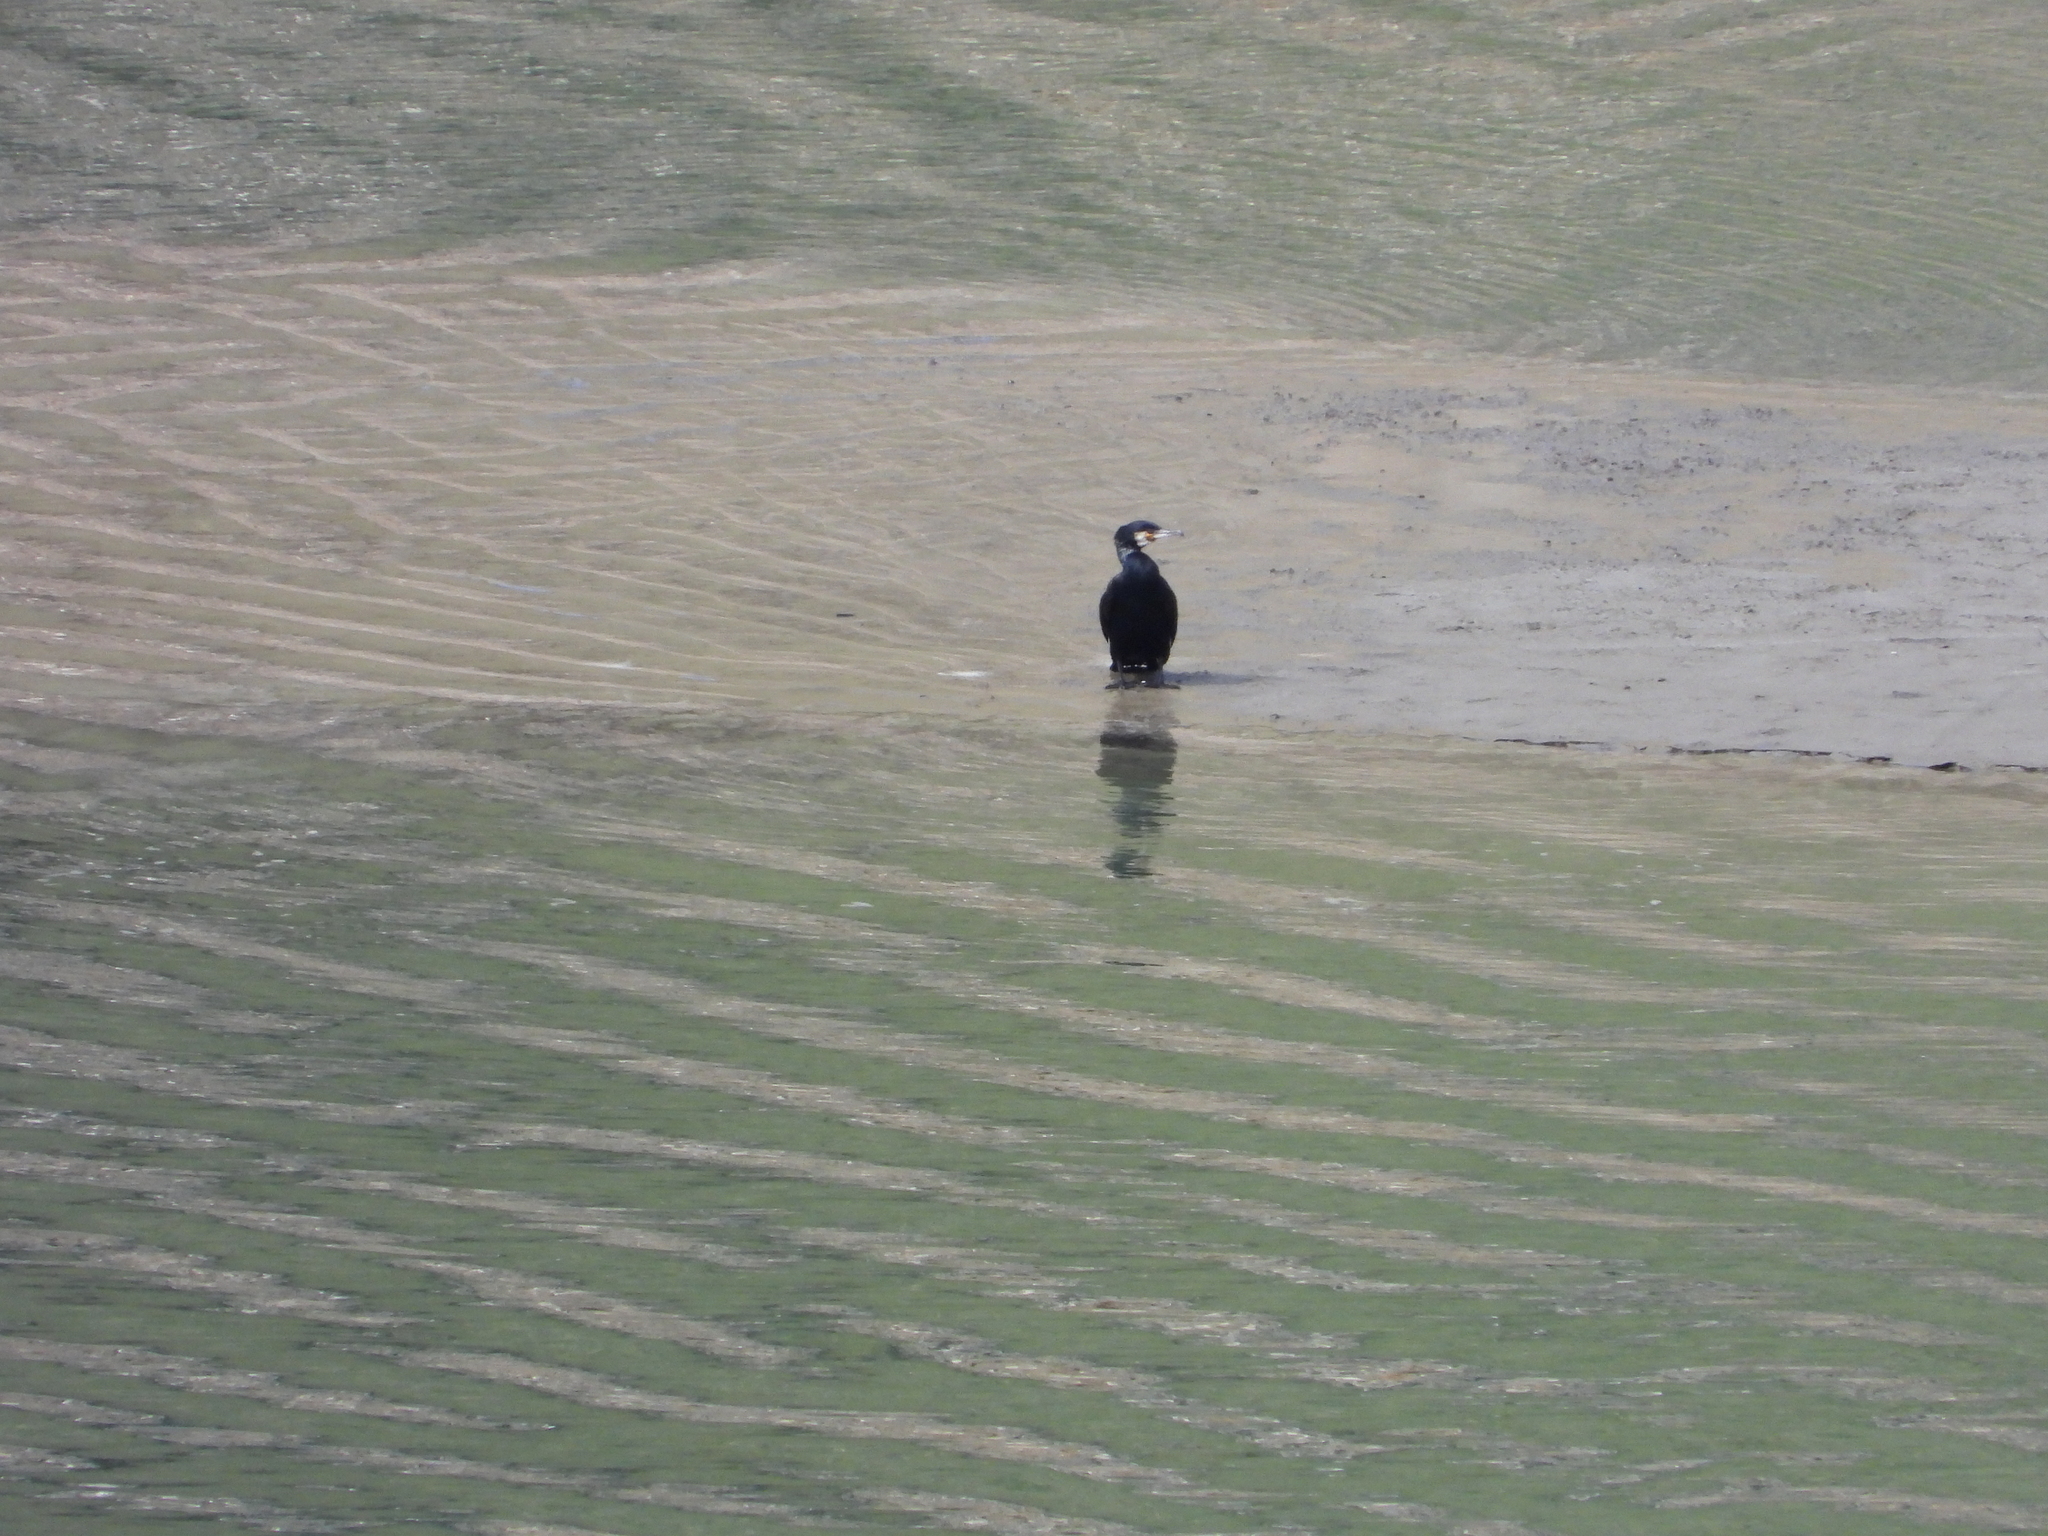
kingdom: Animalia
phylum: Chordata
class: Aves
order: Suliformes
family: Phalacrocoracidae
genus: Phalacrocorax
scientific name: Phalacrocorax carbo
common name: Great cormorant
